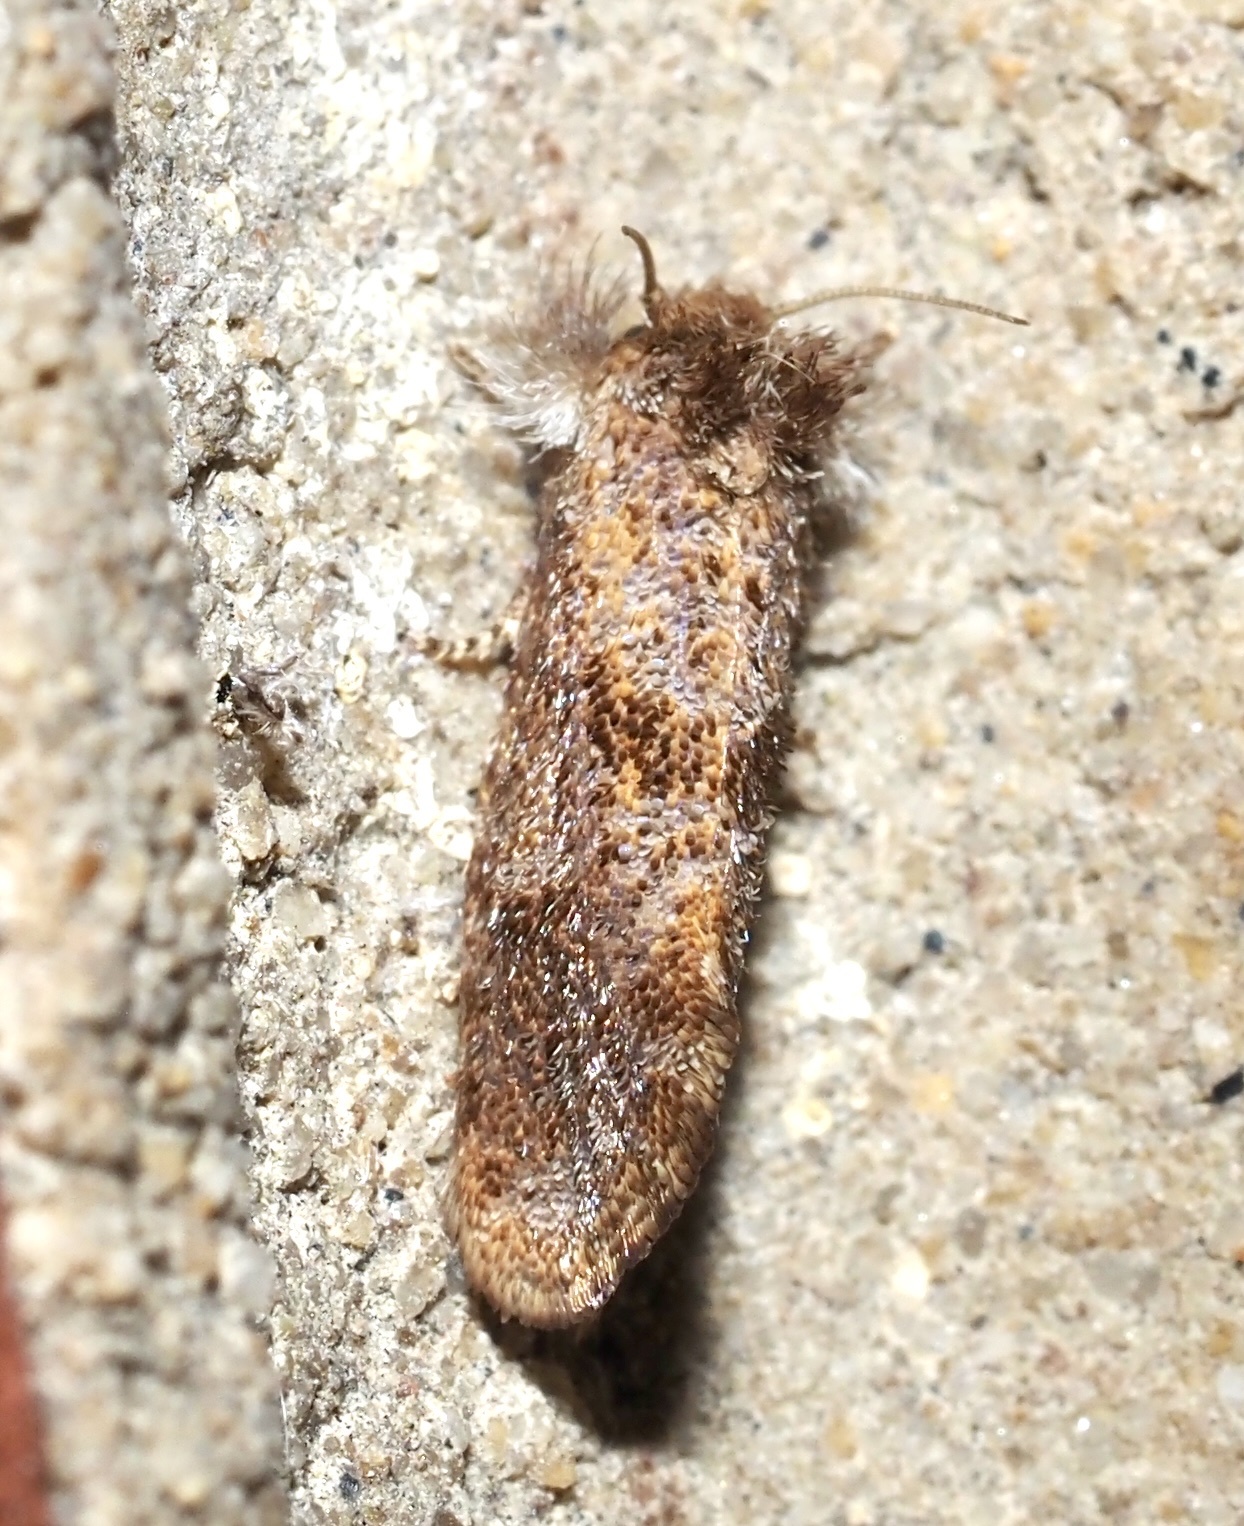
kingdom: Animalia
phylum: Arthropoda
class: Insecta
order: Lepidoptera
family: Tineidae
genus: Acrolophus
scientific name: Acrolophus panamae
